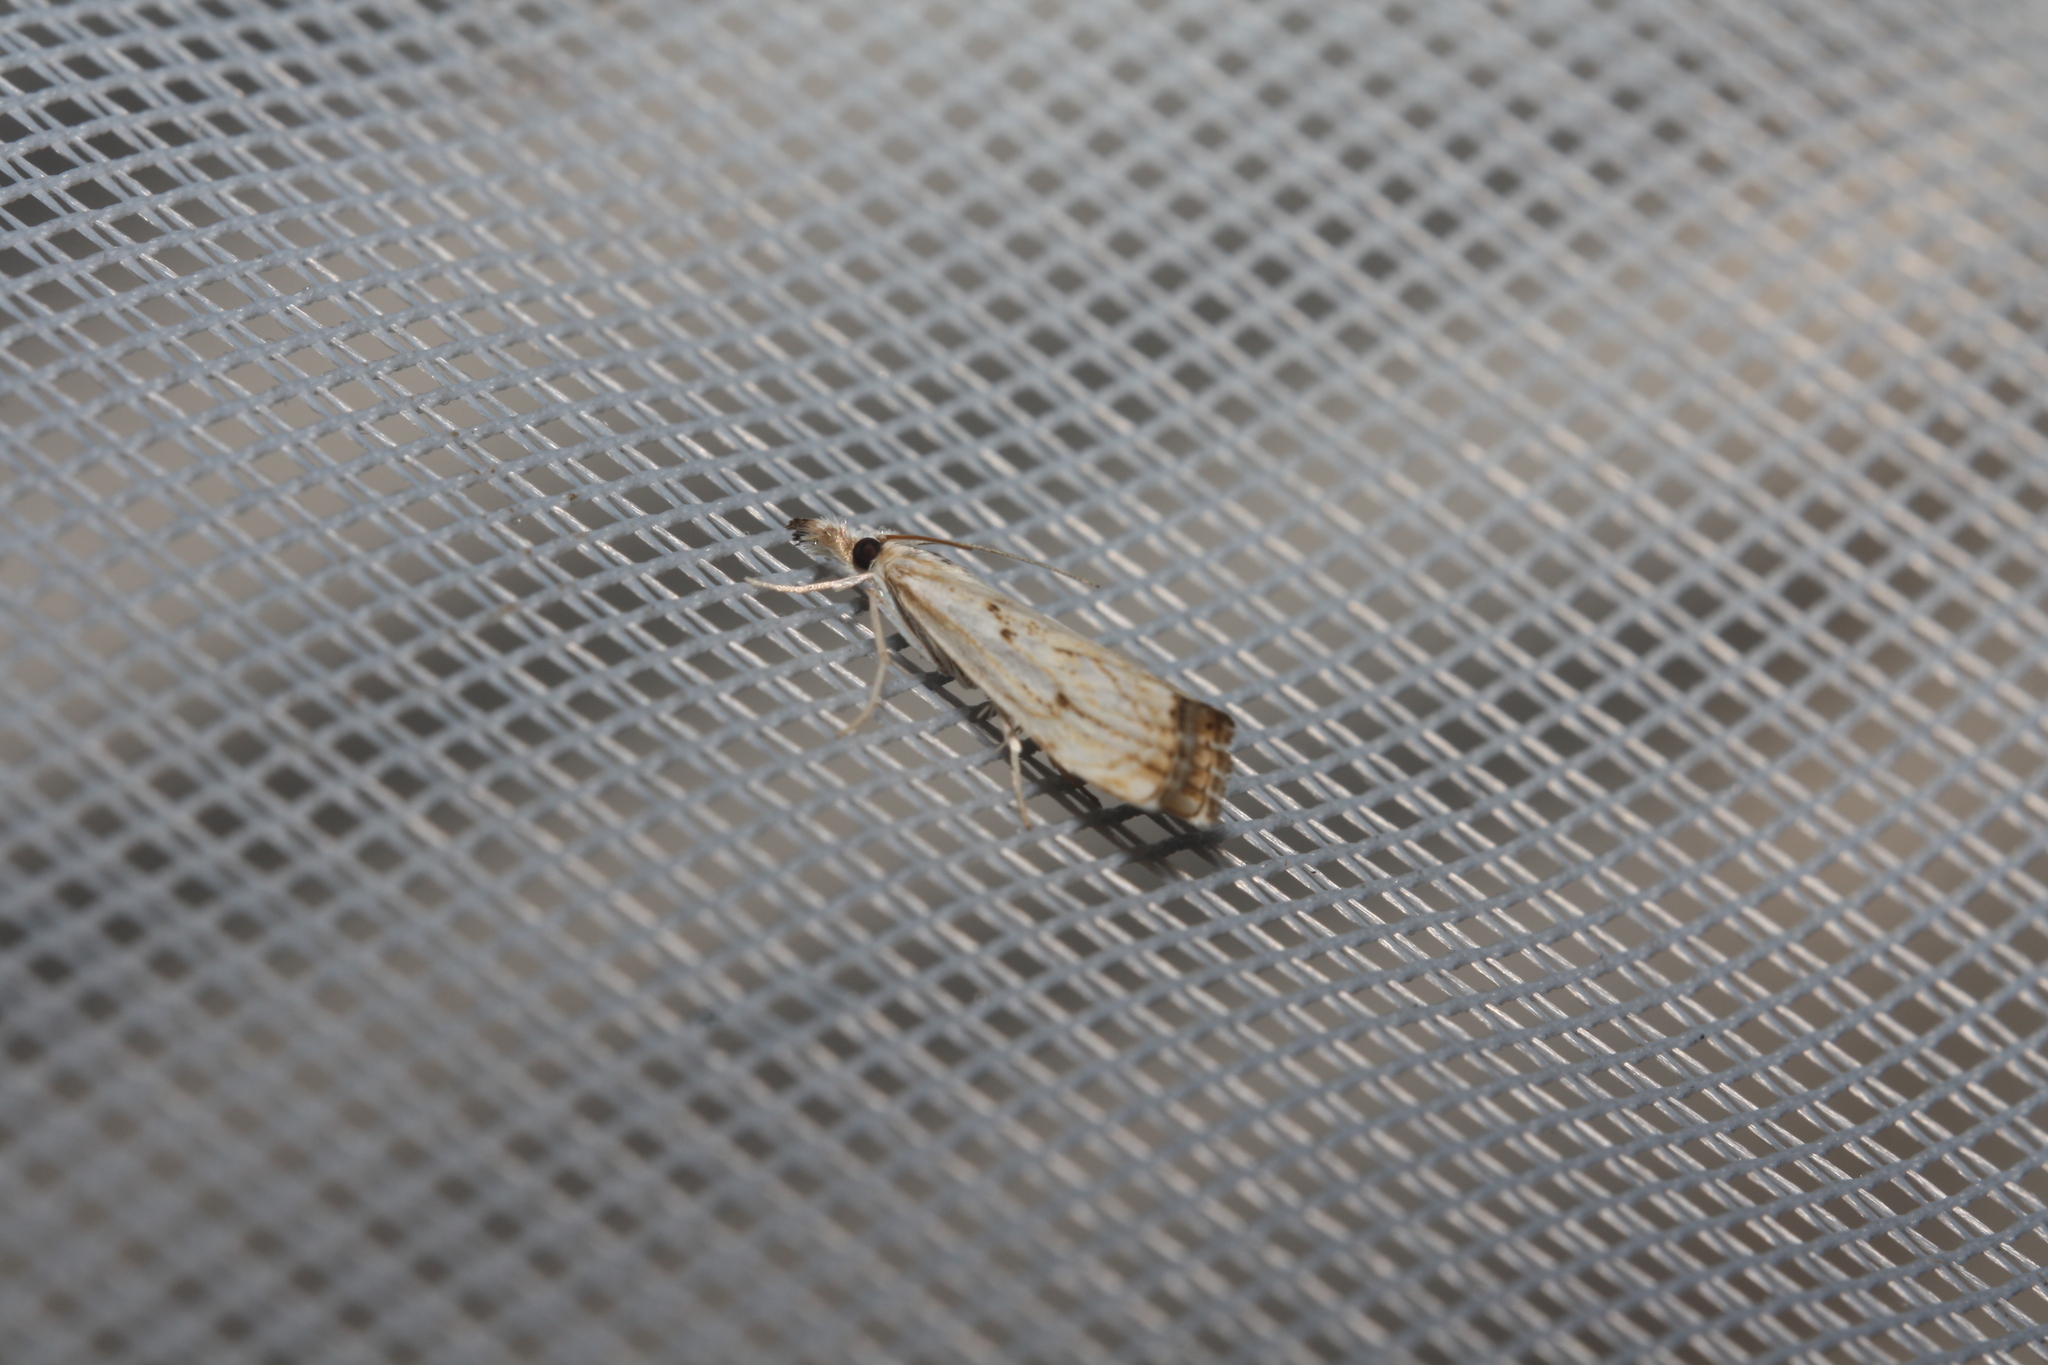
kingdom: Animalia
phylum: Arthropoda
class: Insecta
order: Lepidoptera
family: Crambidae
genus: Catoptria
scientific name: Catoptria falsella
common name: Chequered grass-veneer
